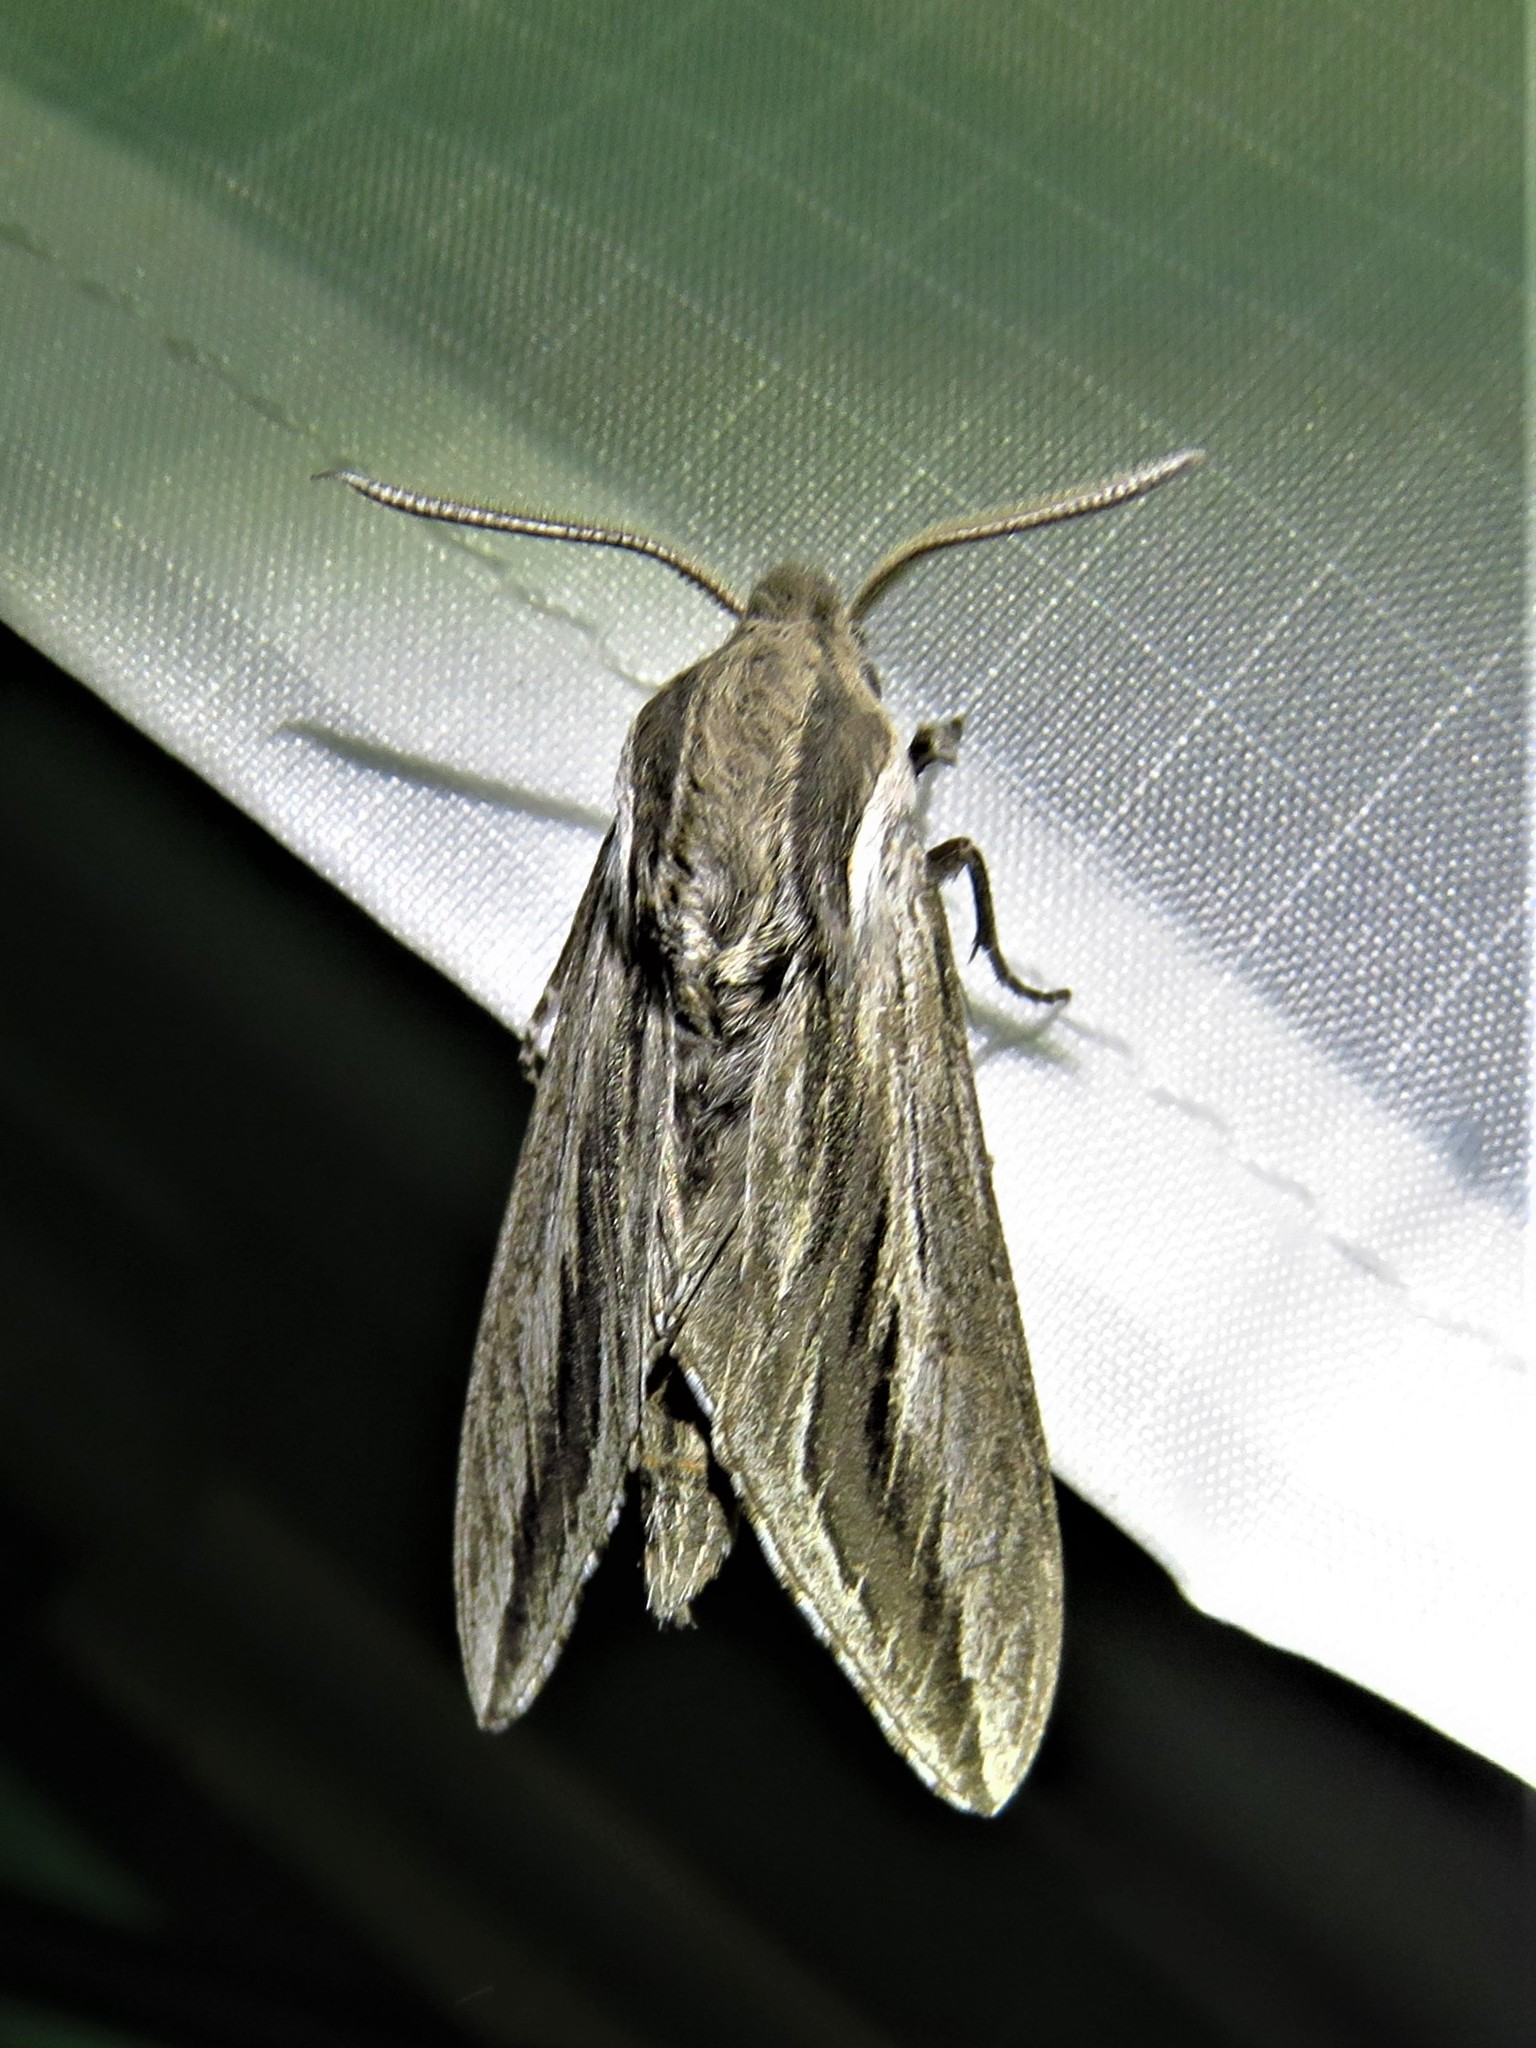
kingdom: Animalia
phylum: Arthropoda
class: Insecta
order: Lepidoptera
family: Sphingidae
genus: Sphinx
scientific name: Sphinx vanbuskirki
